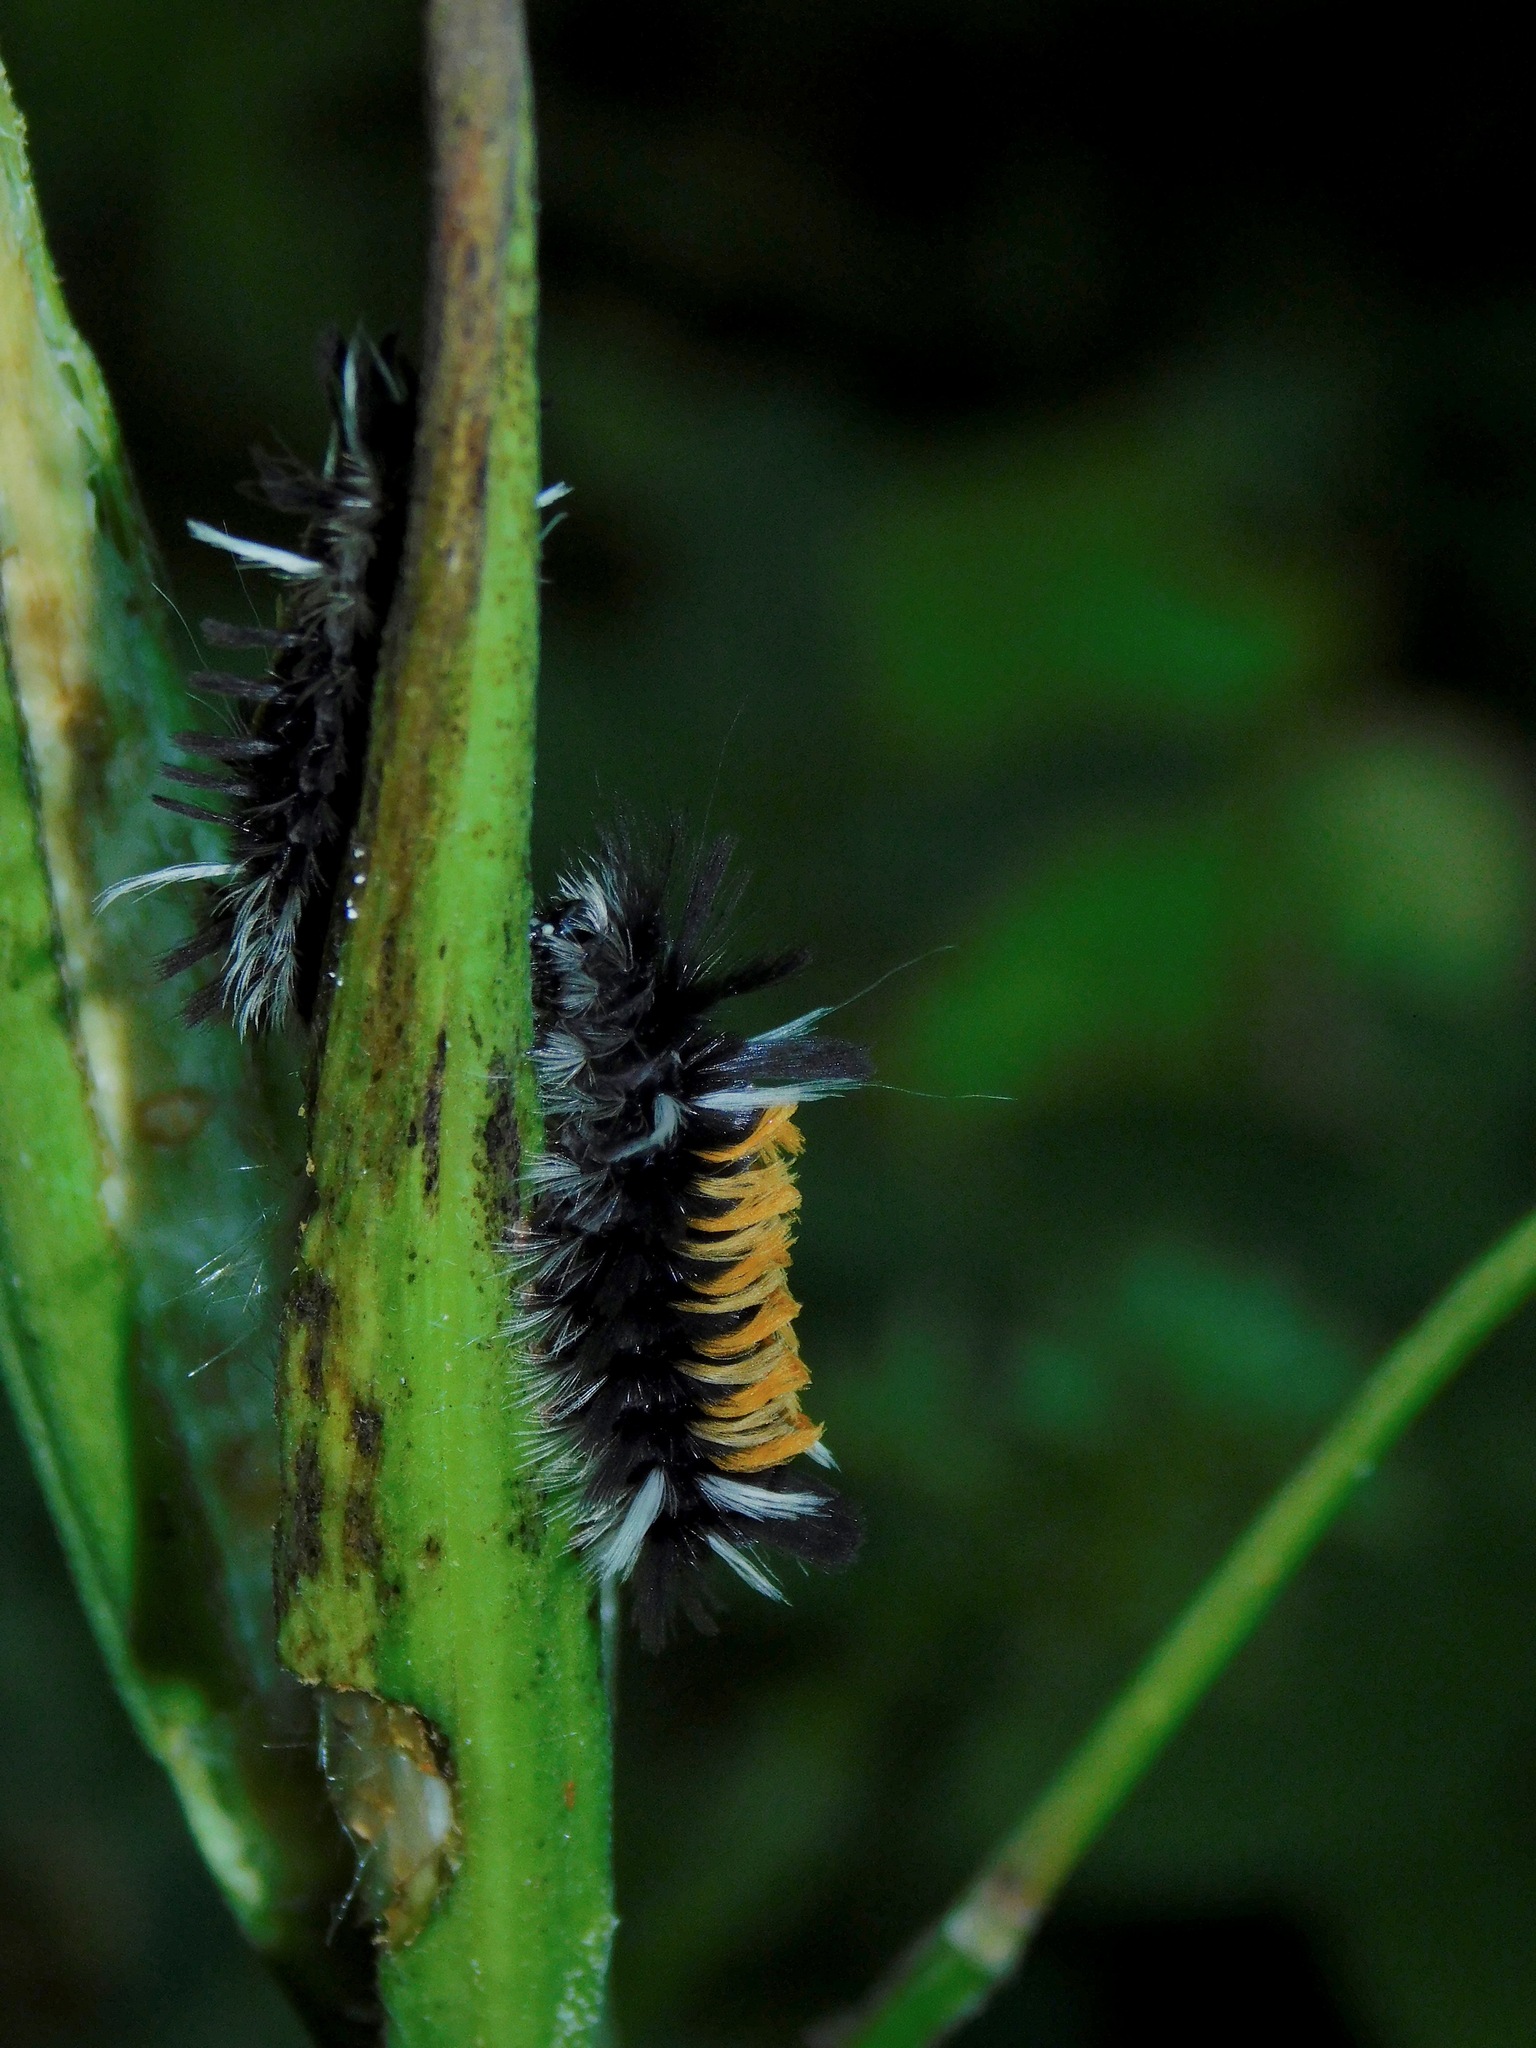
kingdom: Animalia
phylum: Arthropoda
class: Insecta
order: Lepidoptera
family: Erebidae
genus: Euchaetes
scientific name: Euchaetes egle
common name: Milkweed tussock moth
